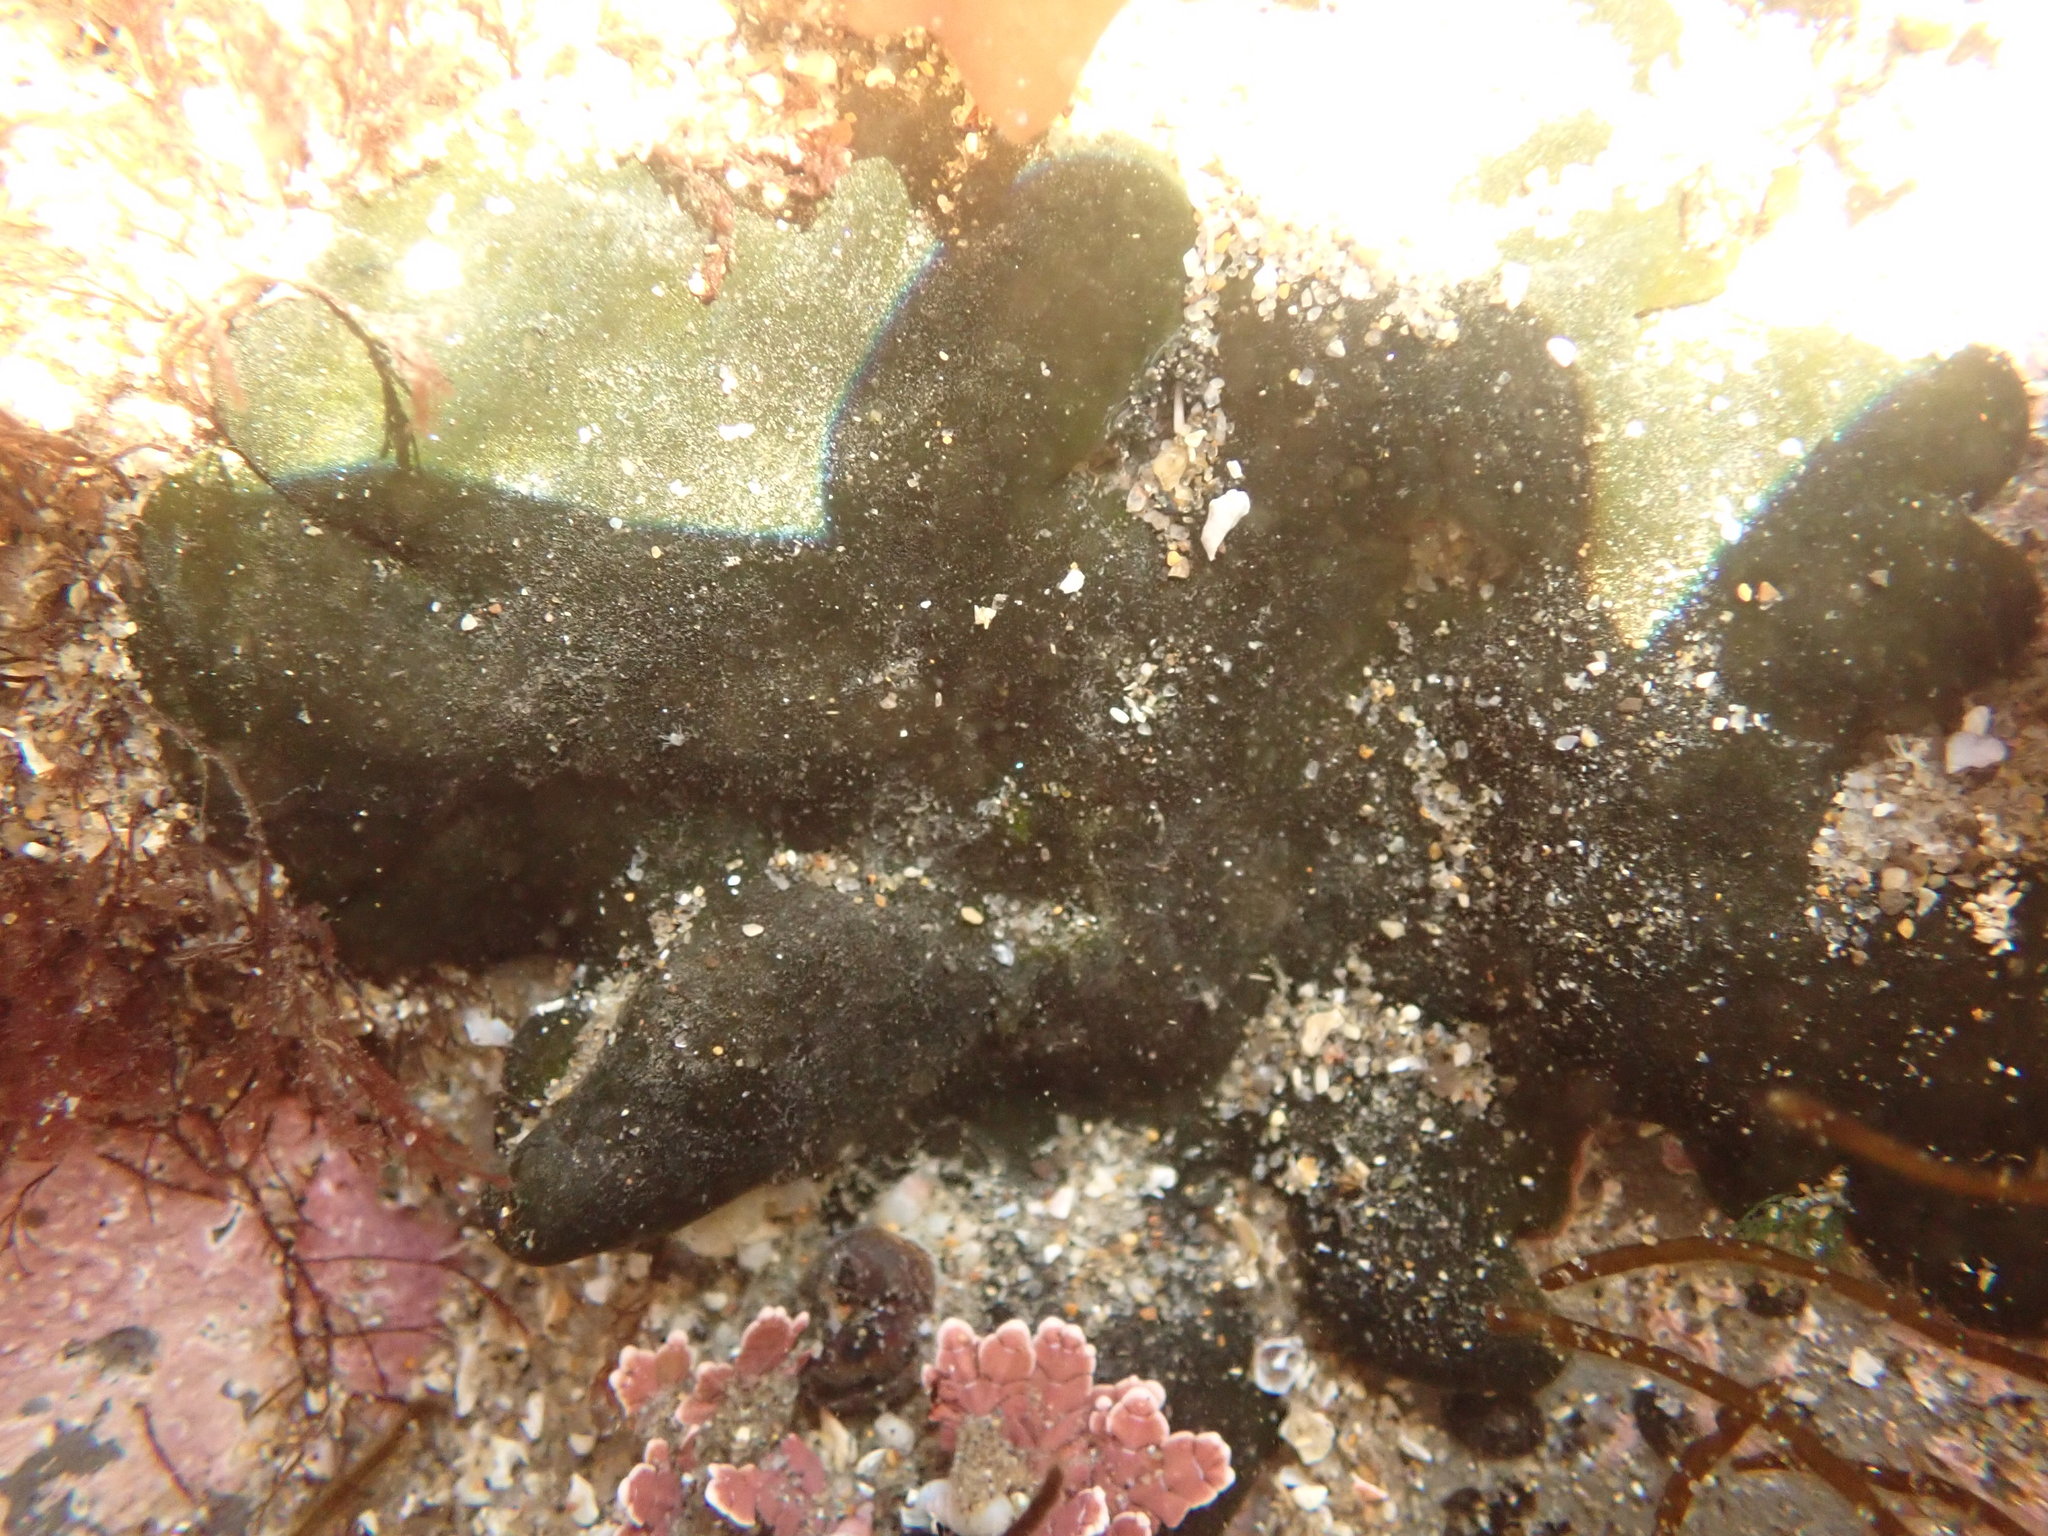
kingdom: Plantae
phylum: Chlorophyta
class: Ulvophyceae
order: Bryopsidales
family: Codiaceae
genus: Codium
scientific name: Codium setchellii
